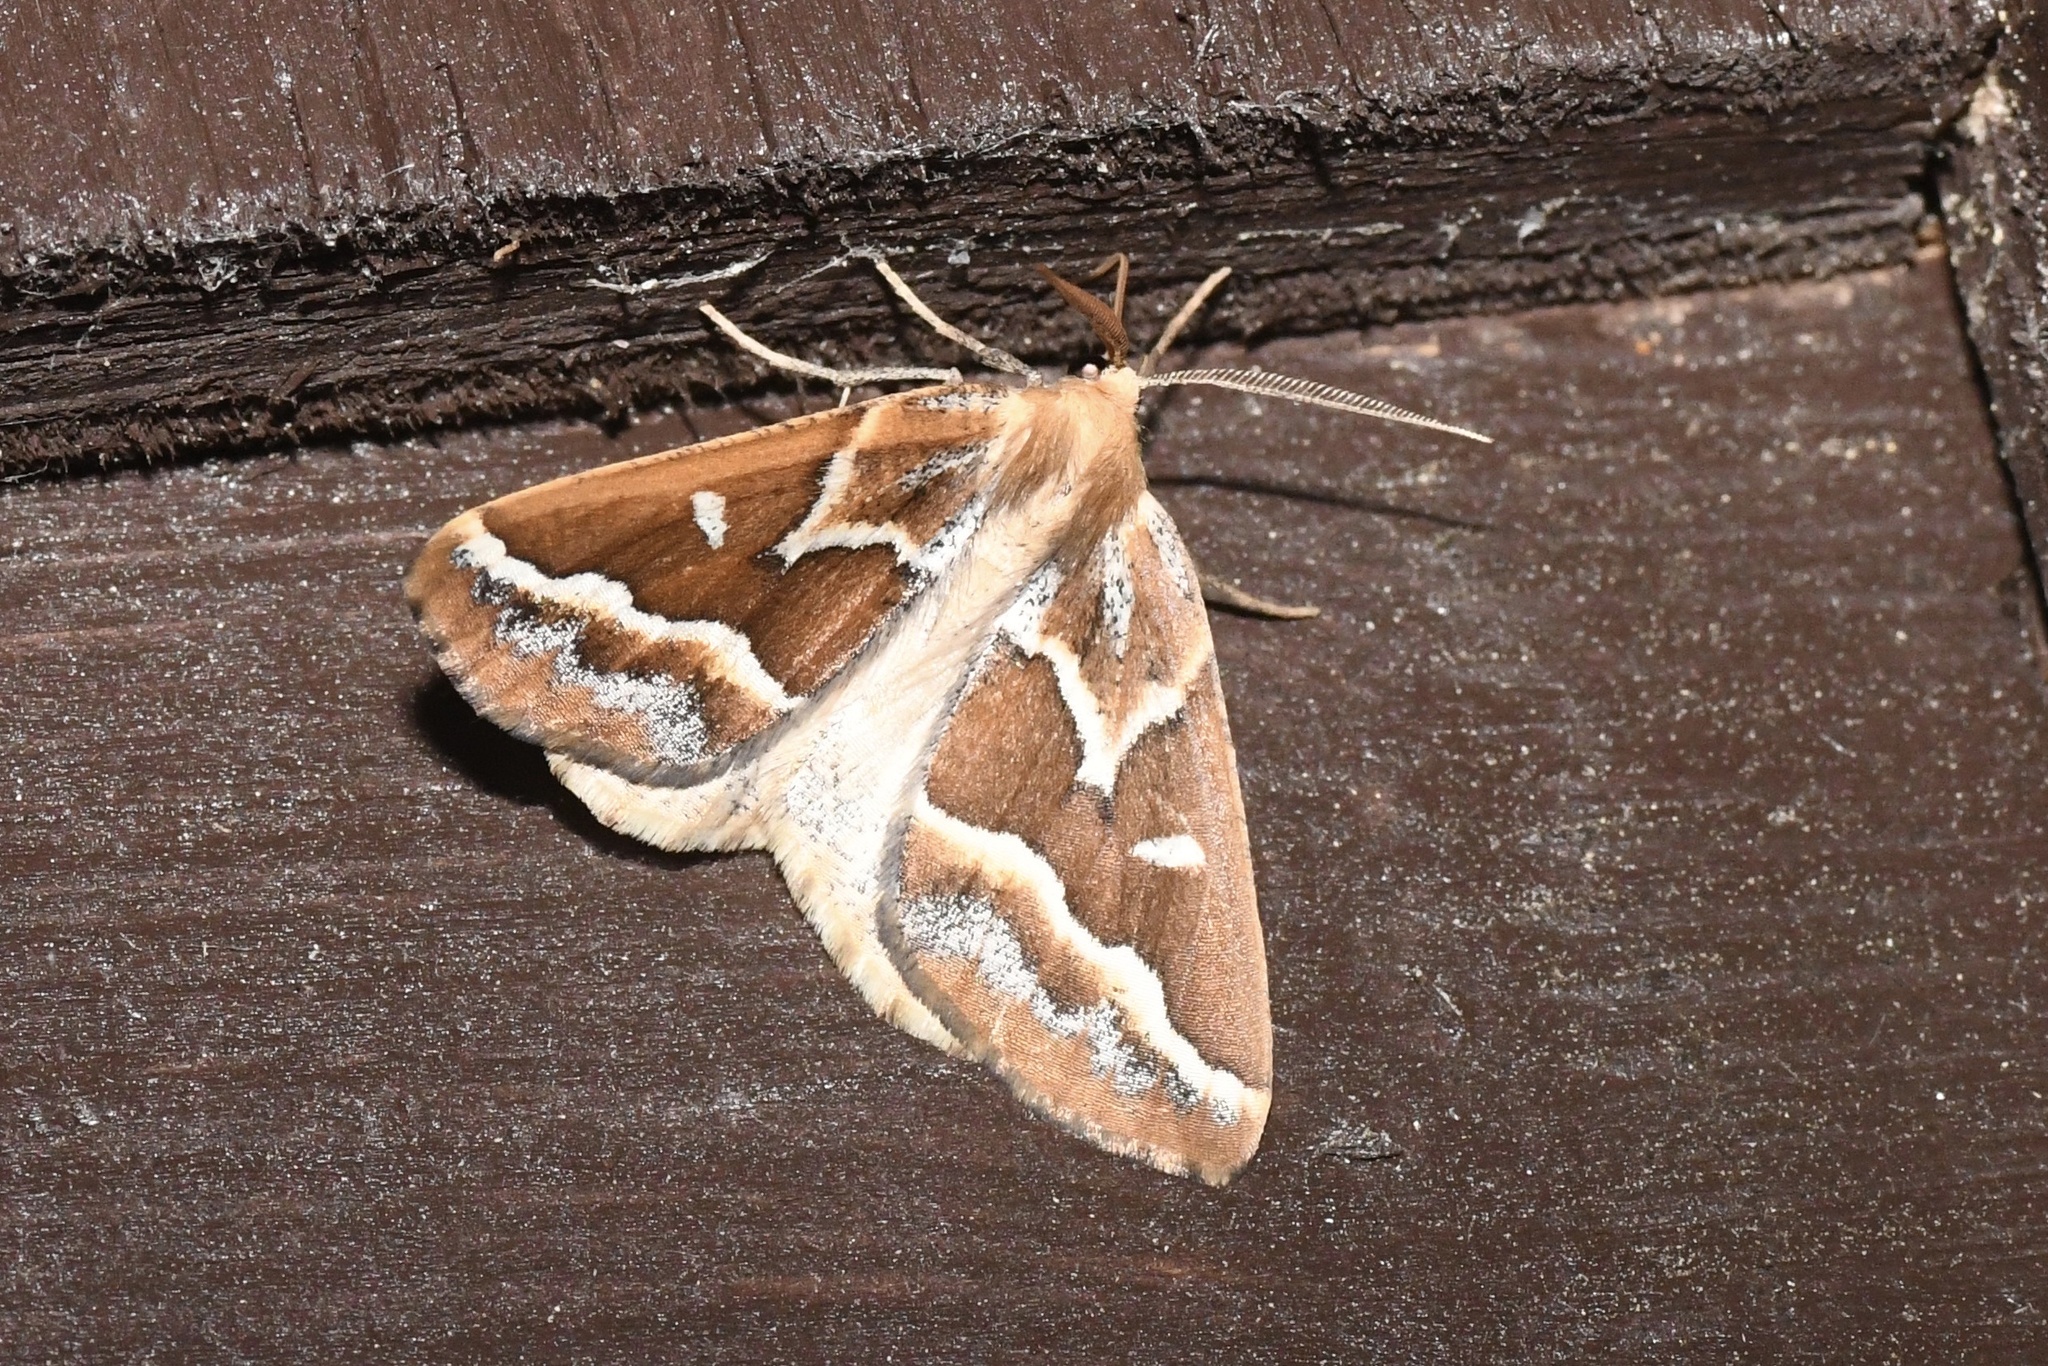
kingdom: Animalia
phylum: Arthropoda
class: Insecta
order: Lepidoptera
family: Geometridae
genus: Caripeta
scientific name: Caripeta angustiorata
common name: Brown pine looper
